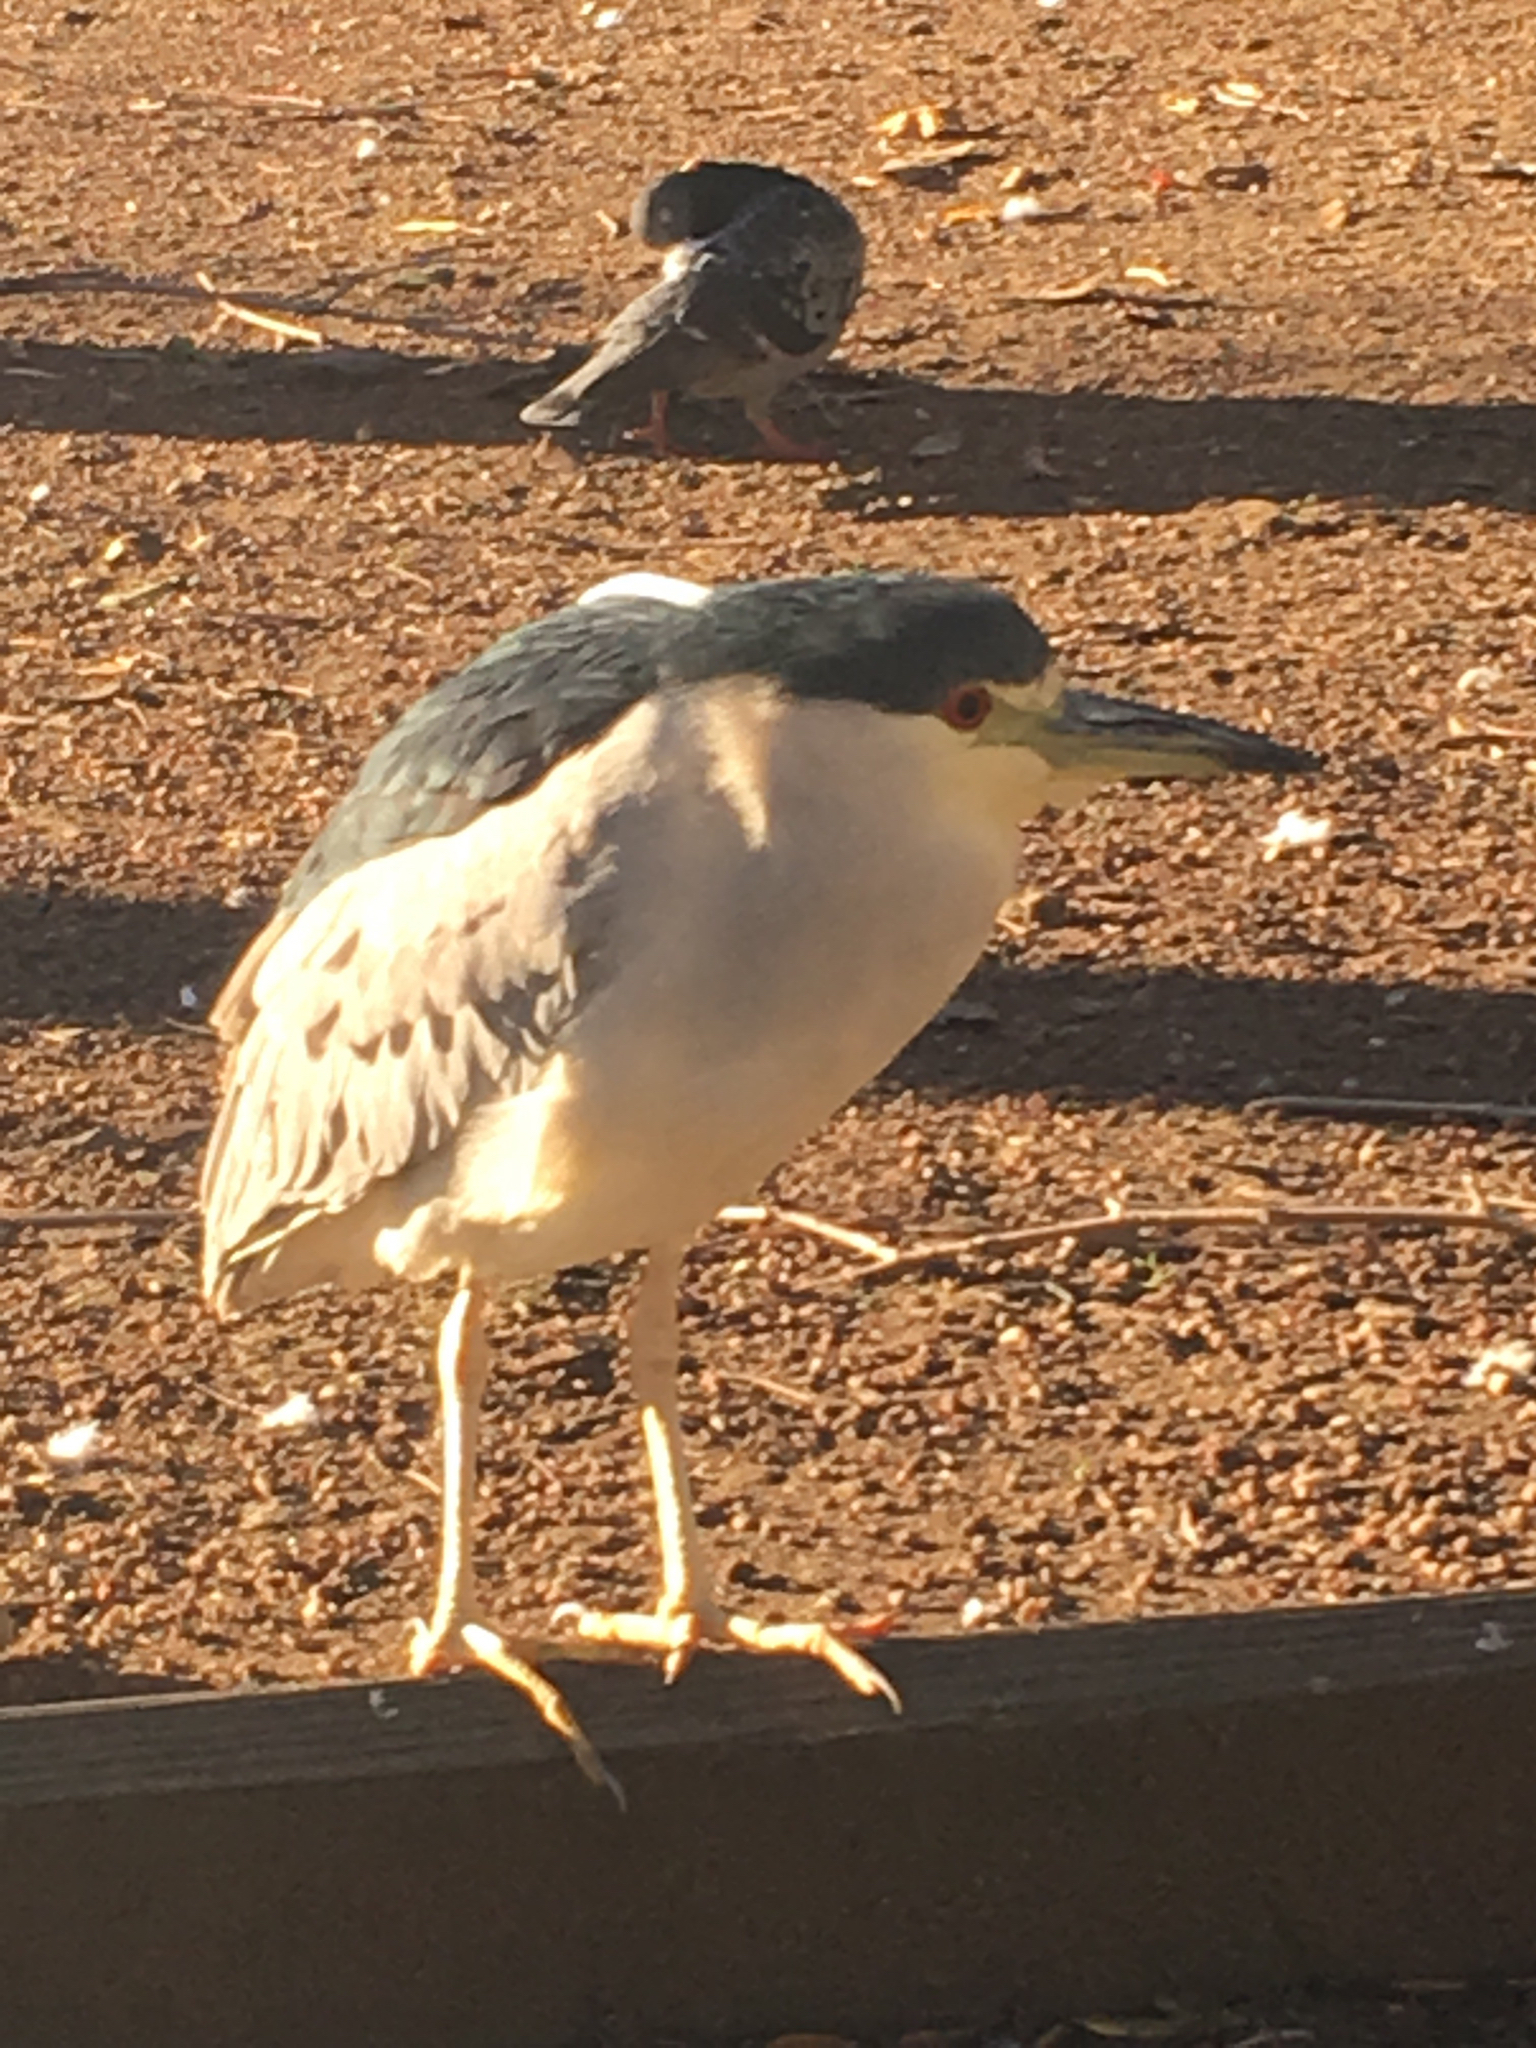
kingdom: Animalia
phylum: Chordata
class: Aves
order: Pelecaniformes
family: Ardeidae
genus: Nycticorax
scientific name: Nycticorax nycticorax
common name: Black-crowned night heron
